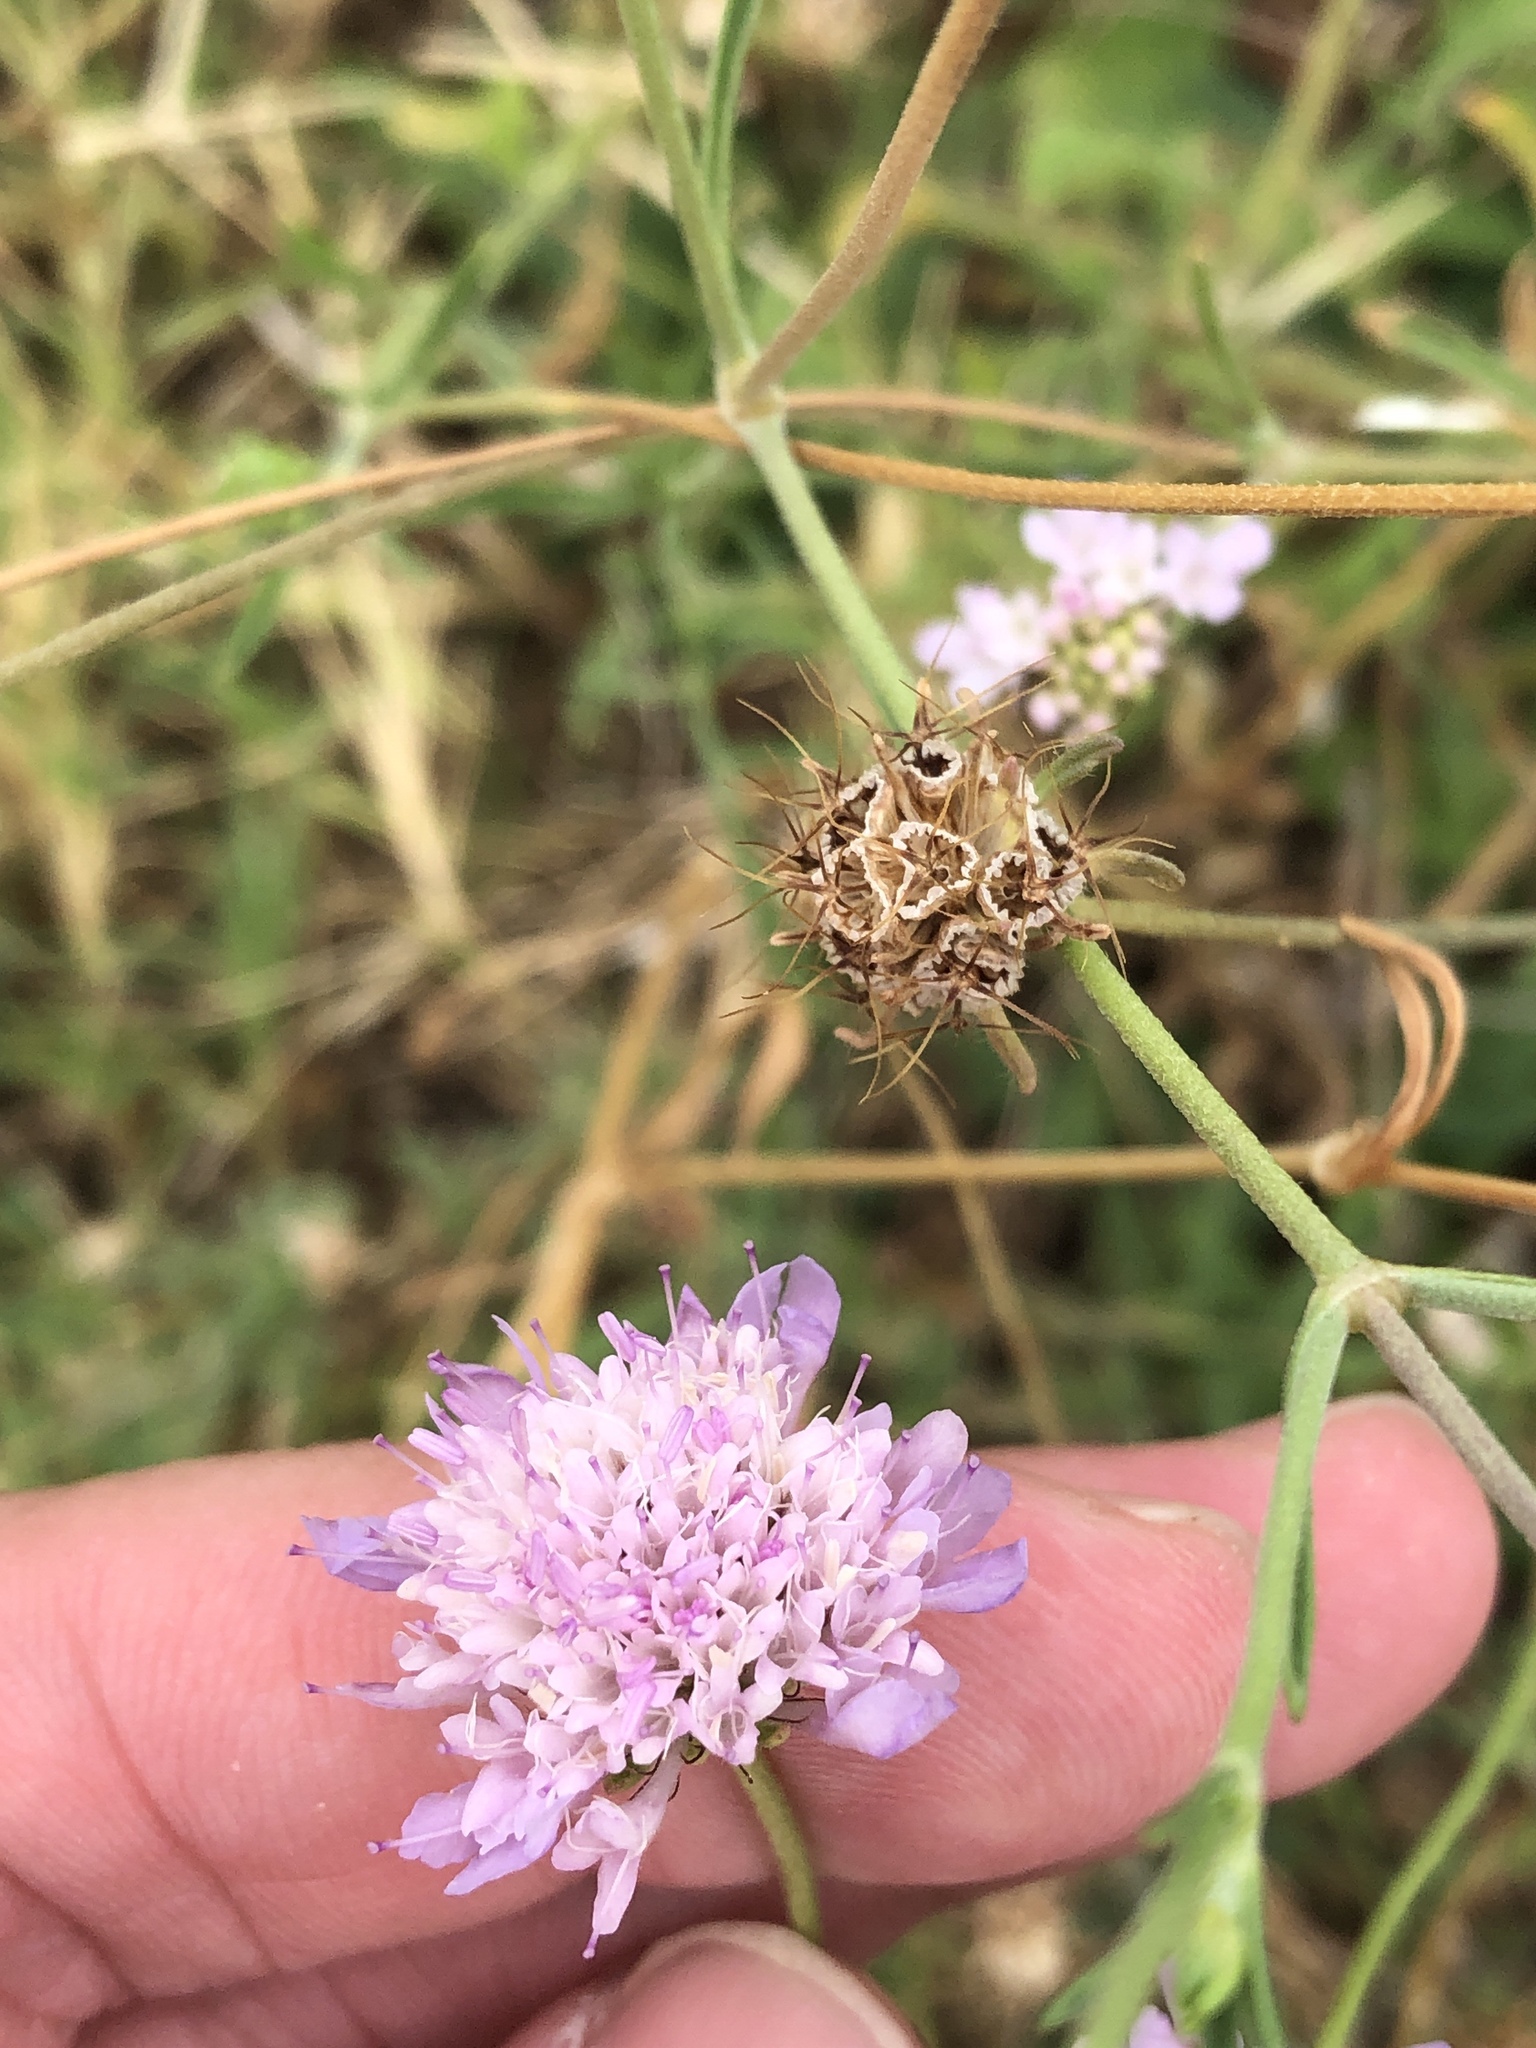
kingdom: Plantae
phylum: Tracheophyta
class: Magnoliopsida
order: Dipsacales
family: Caprifoliaceae
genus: Sixalix
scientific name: Sixalix atropurpurea
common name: Sweet scabious
